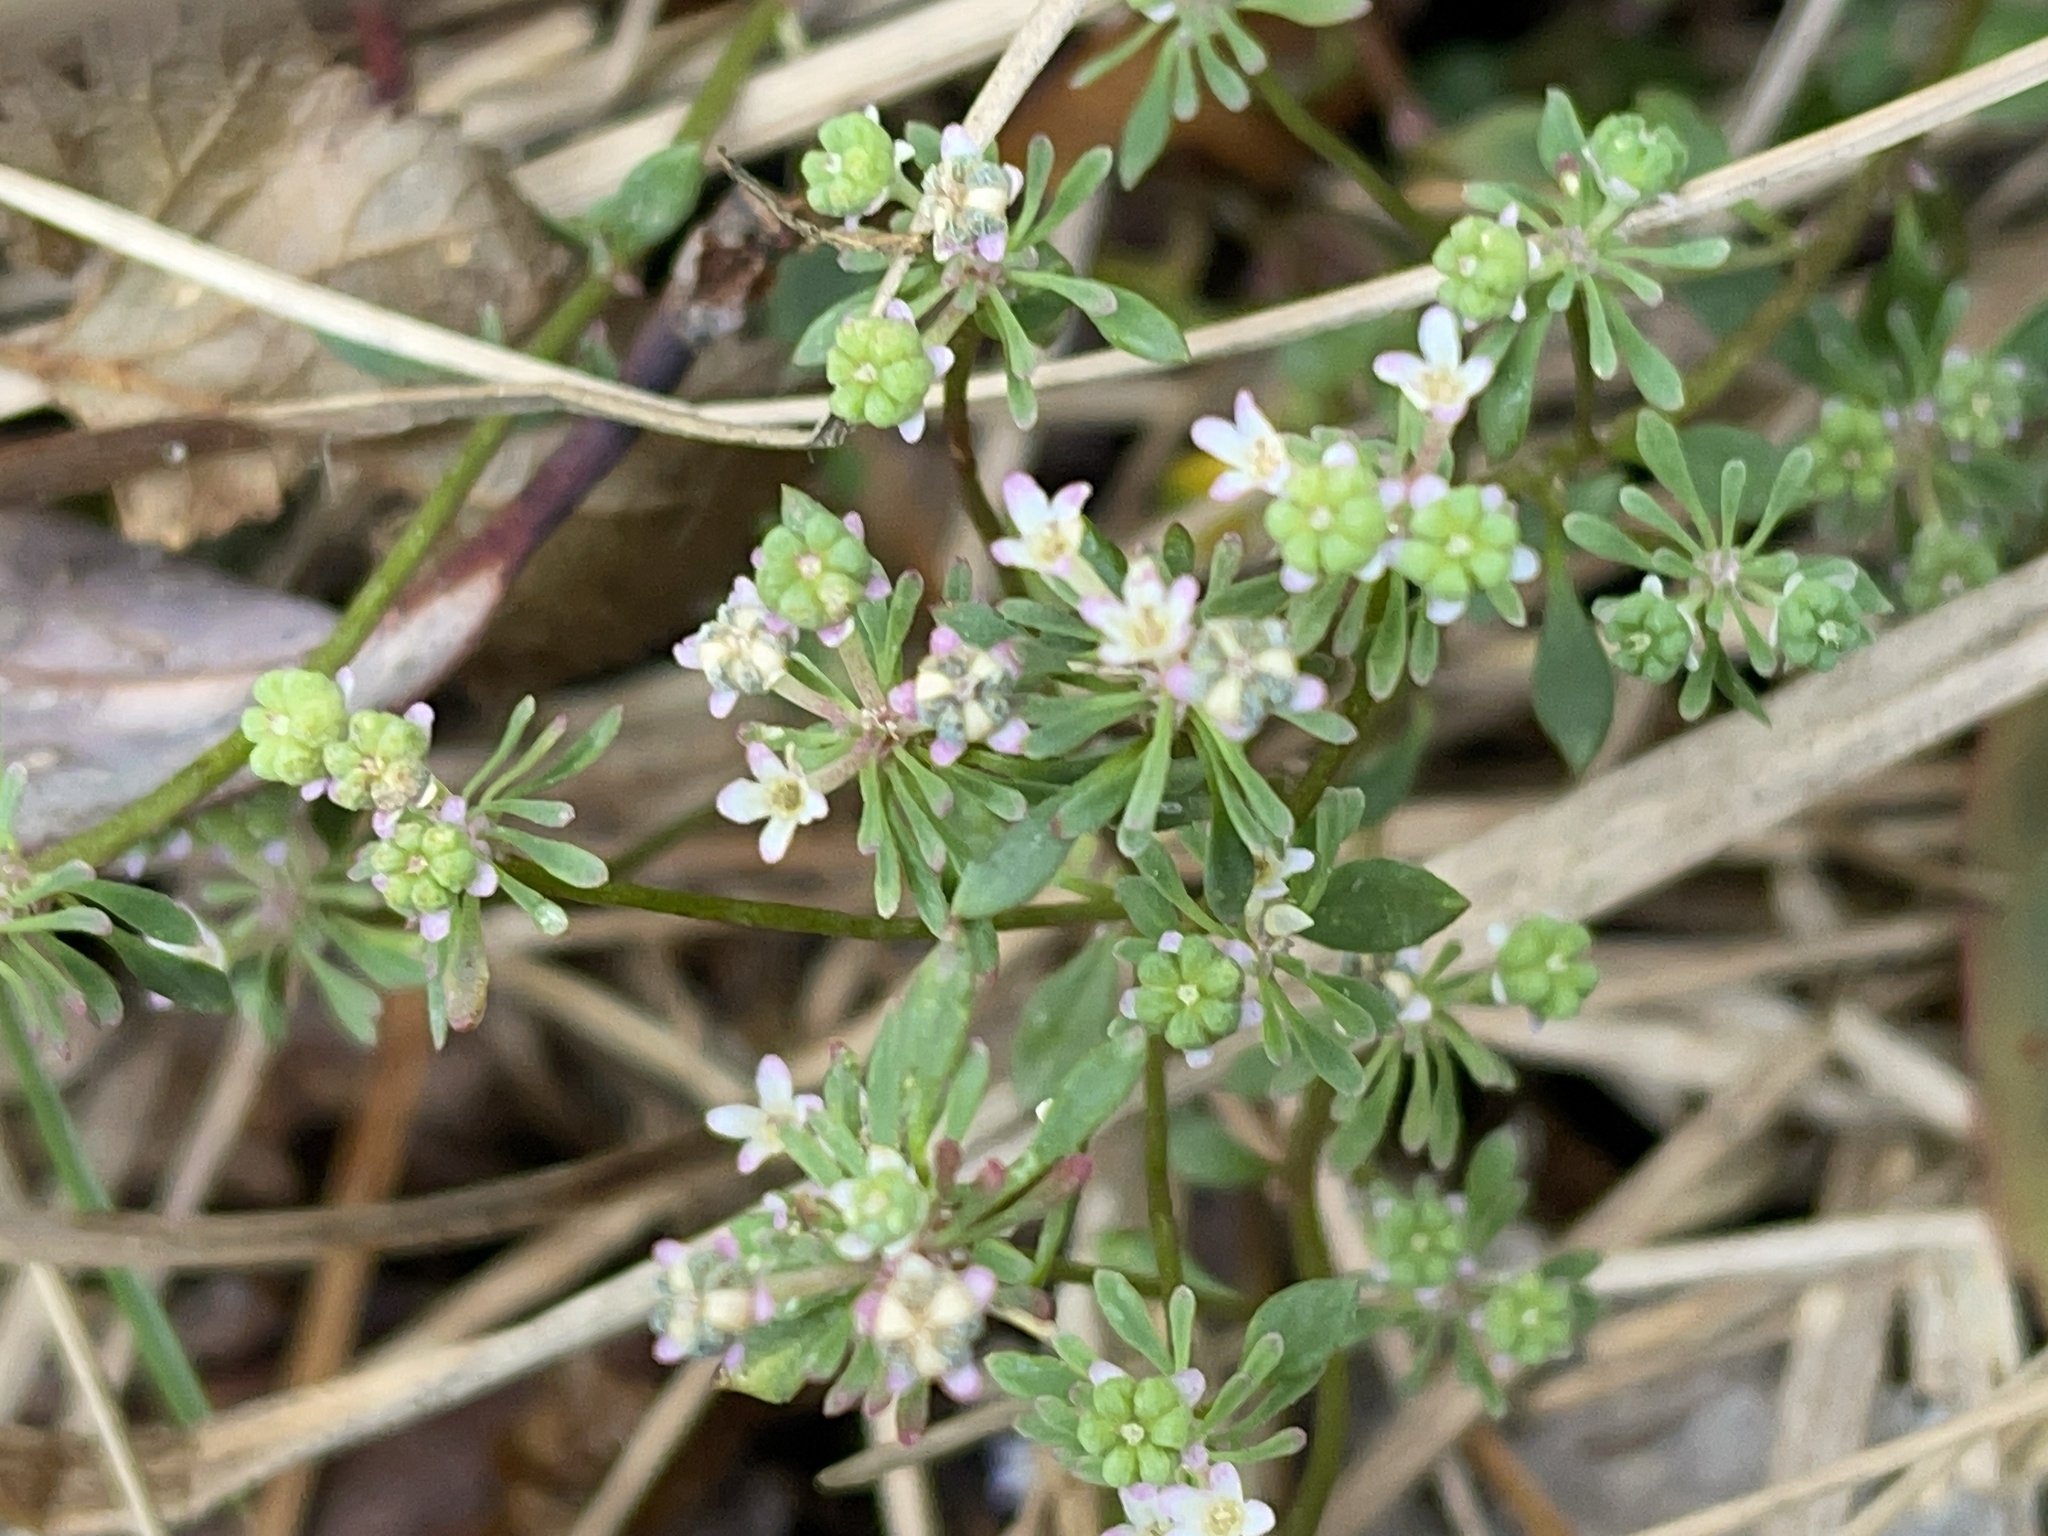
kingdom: Plantae
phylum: Tracheophyta
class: Magnoliopsida
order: Malpighiales
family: Phyllanthaceae
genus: Poranthera
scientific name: Poranthera microphylla
